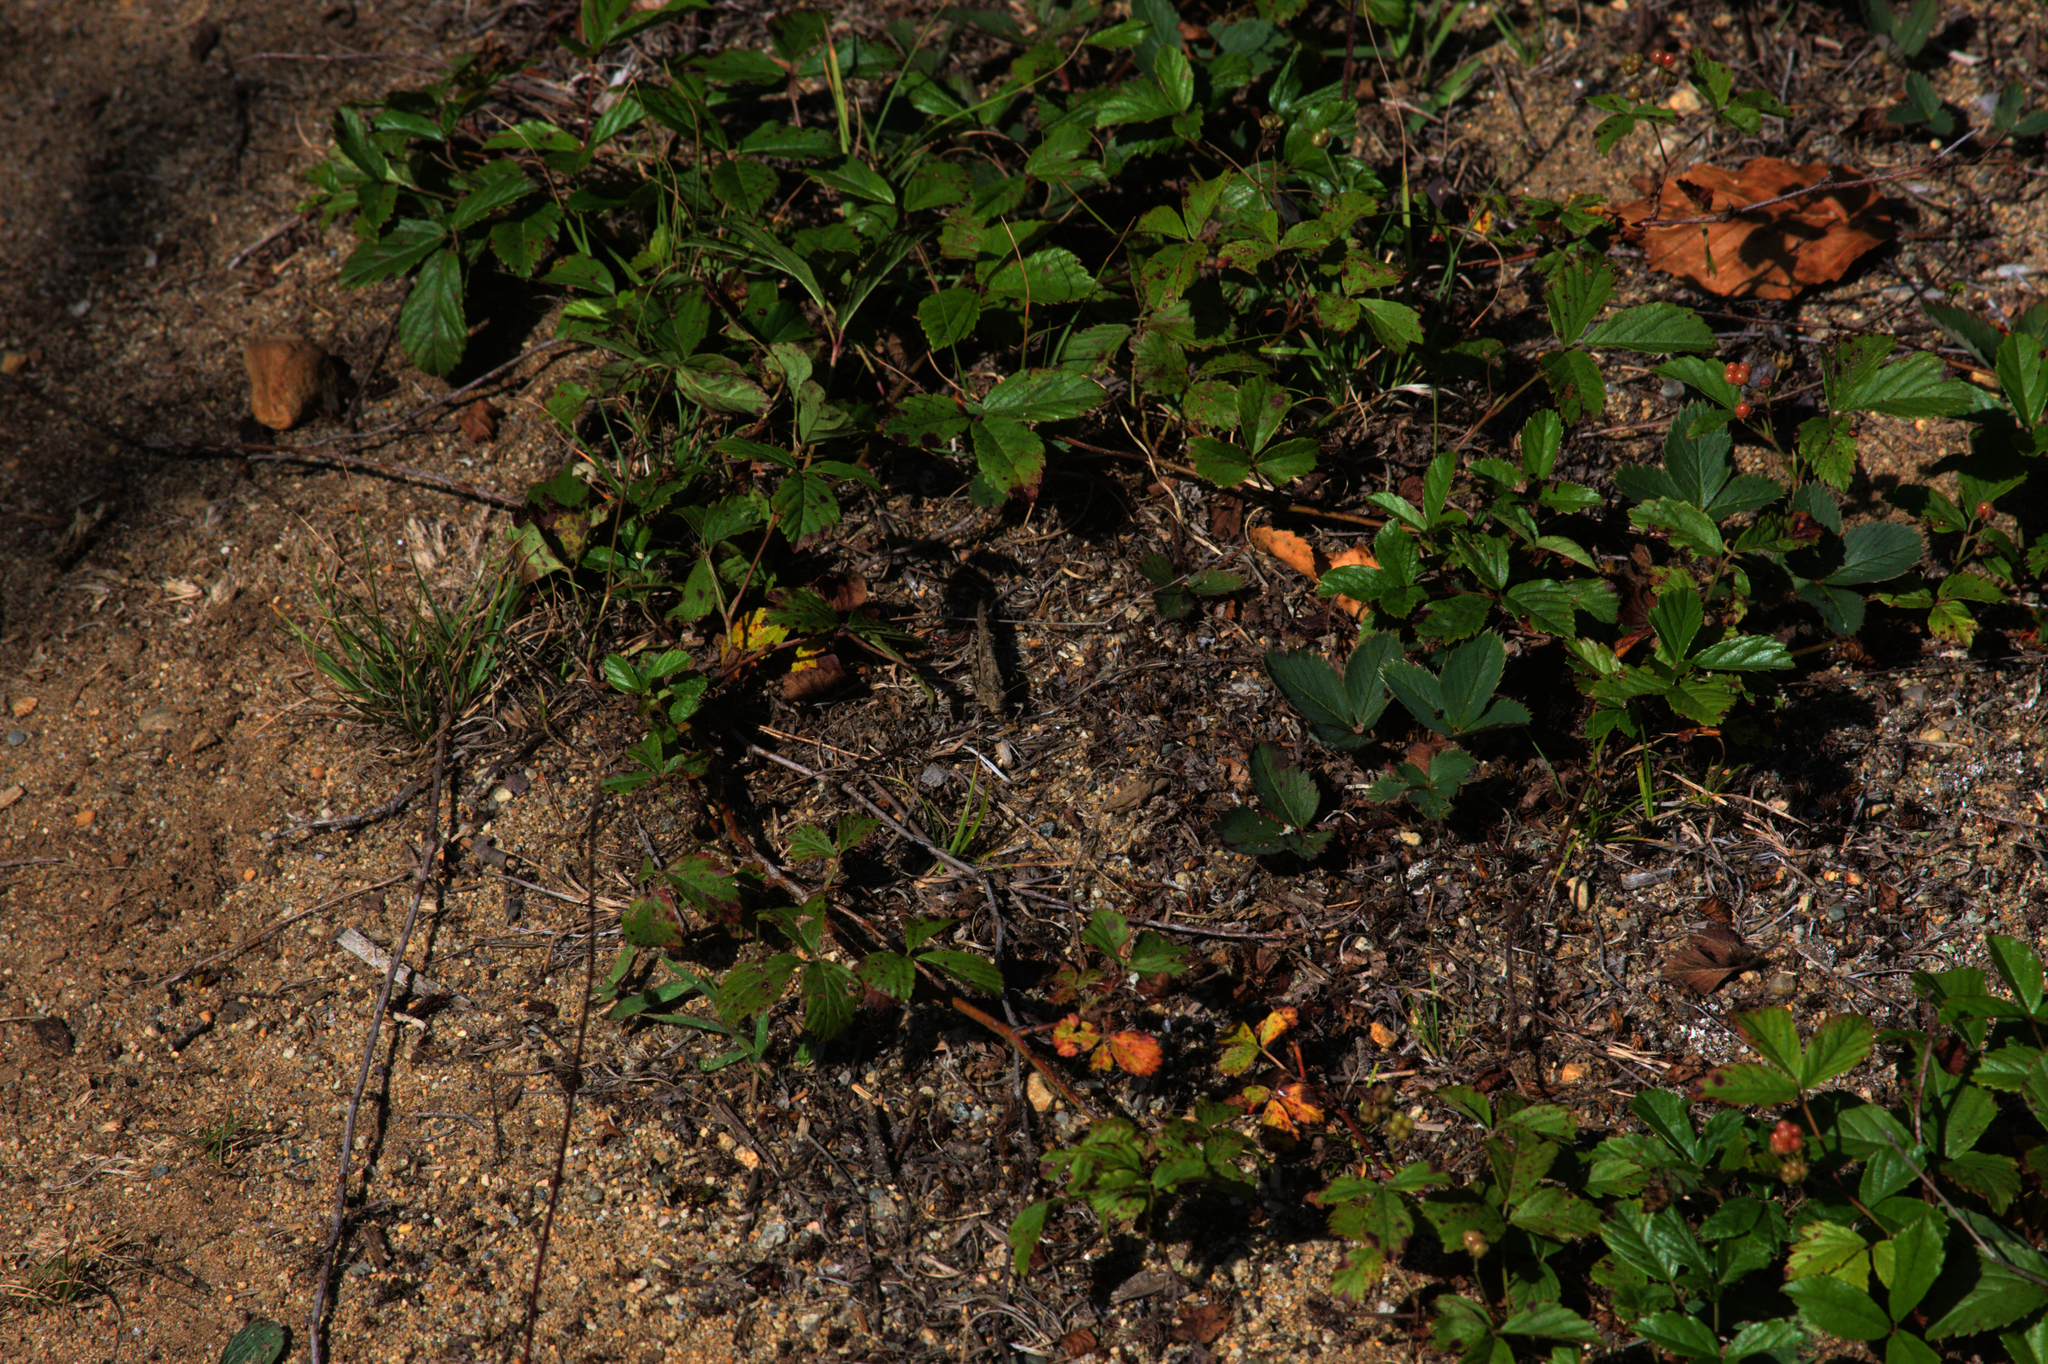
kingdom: Animalia
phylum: Arthropoda
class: Insecta
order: Orthoptera
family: Acrididae
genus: Dissosteira
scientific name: Dissosteira carolina
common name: Carolina grasshopper
